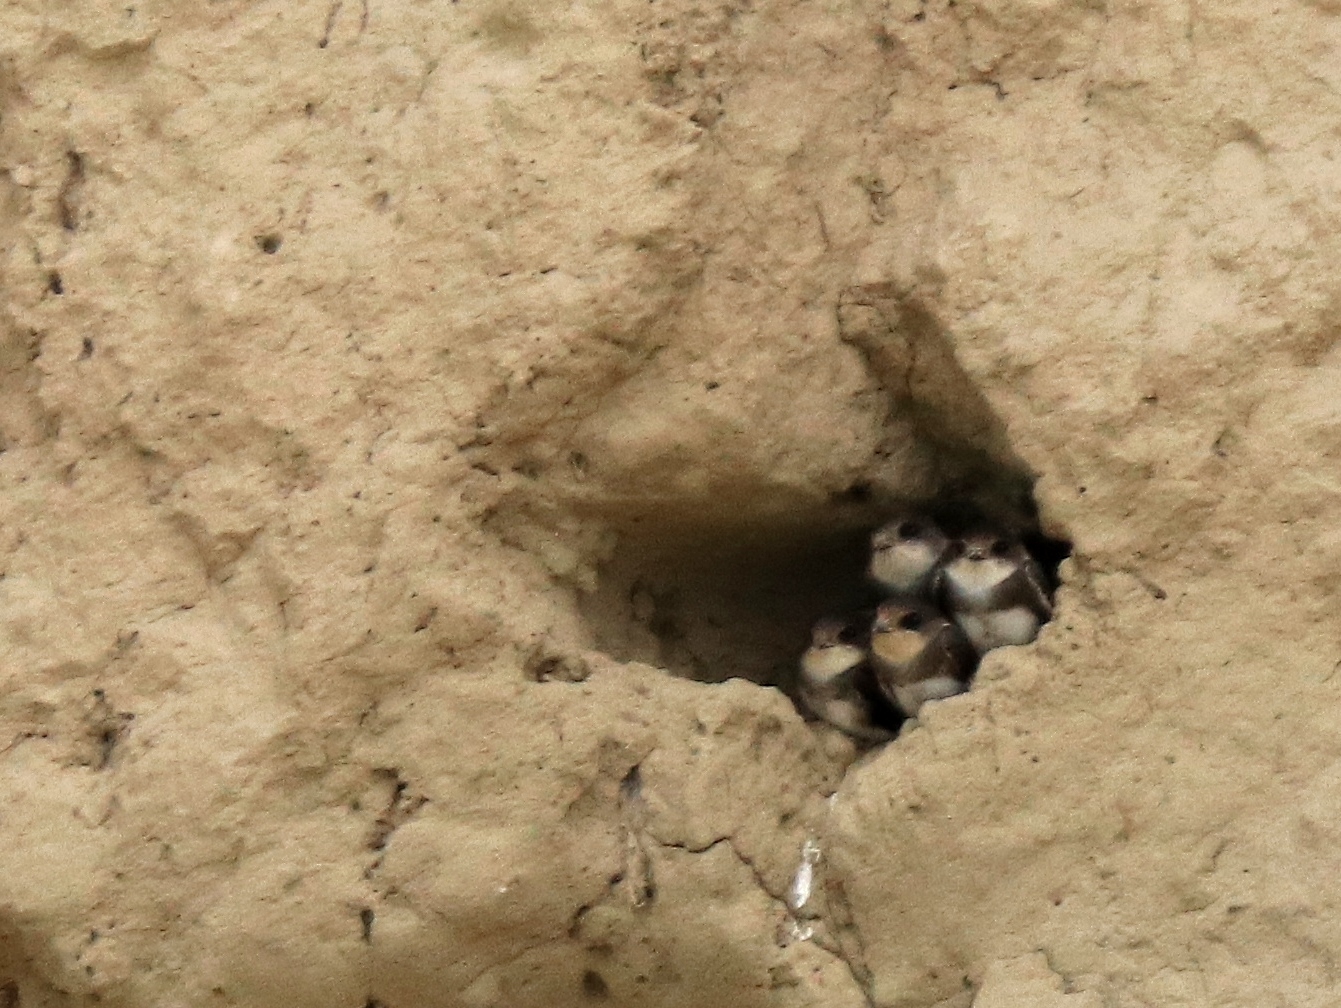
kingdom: Animalia
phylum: Chordata
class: Aves
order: Passeriformes
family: Hirundinidae
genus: Riparia
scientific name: Riparia riparia
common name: Sand martin
